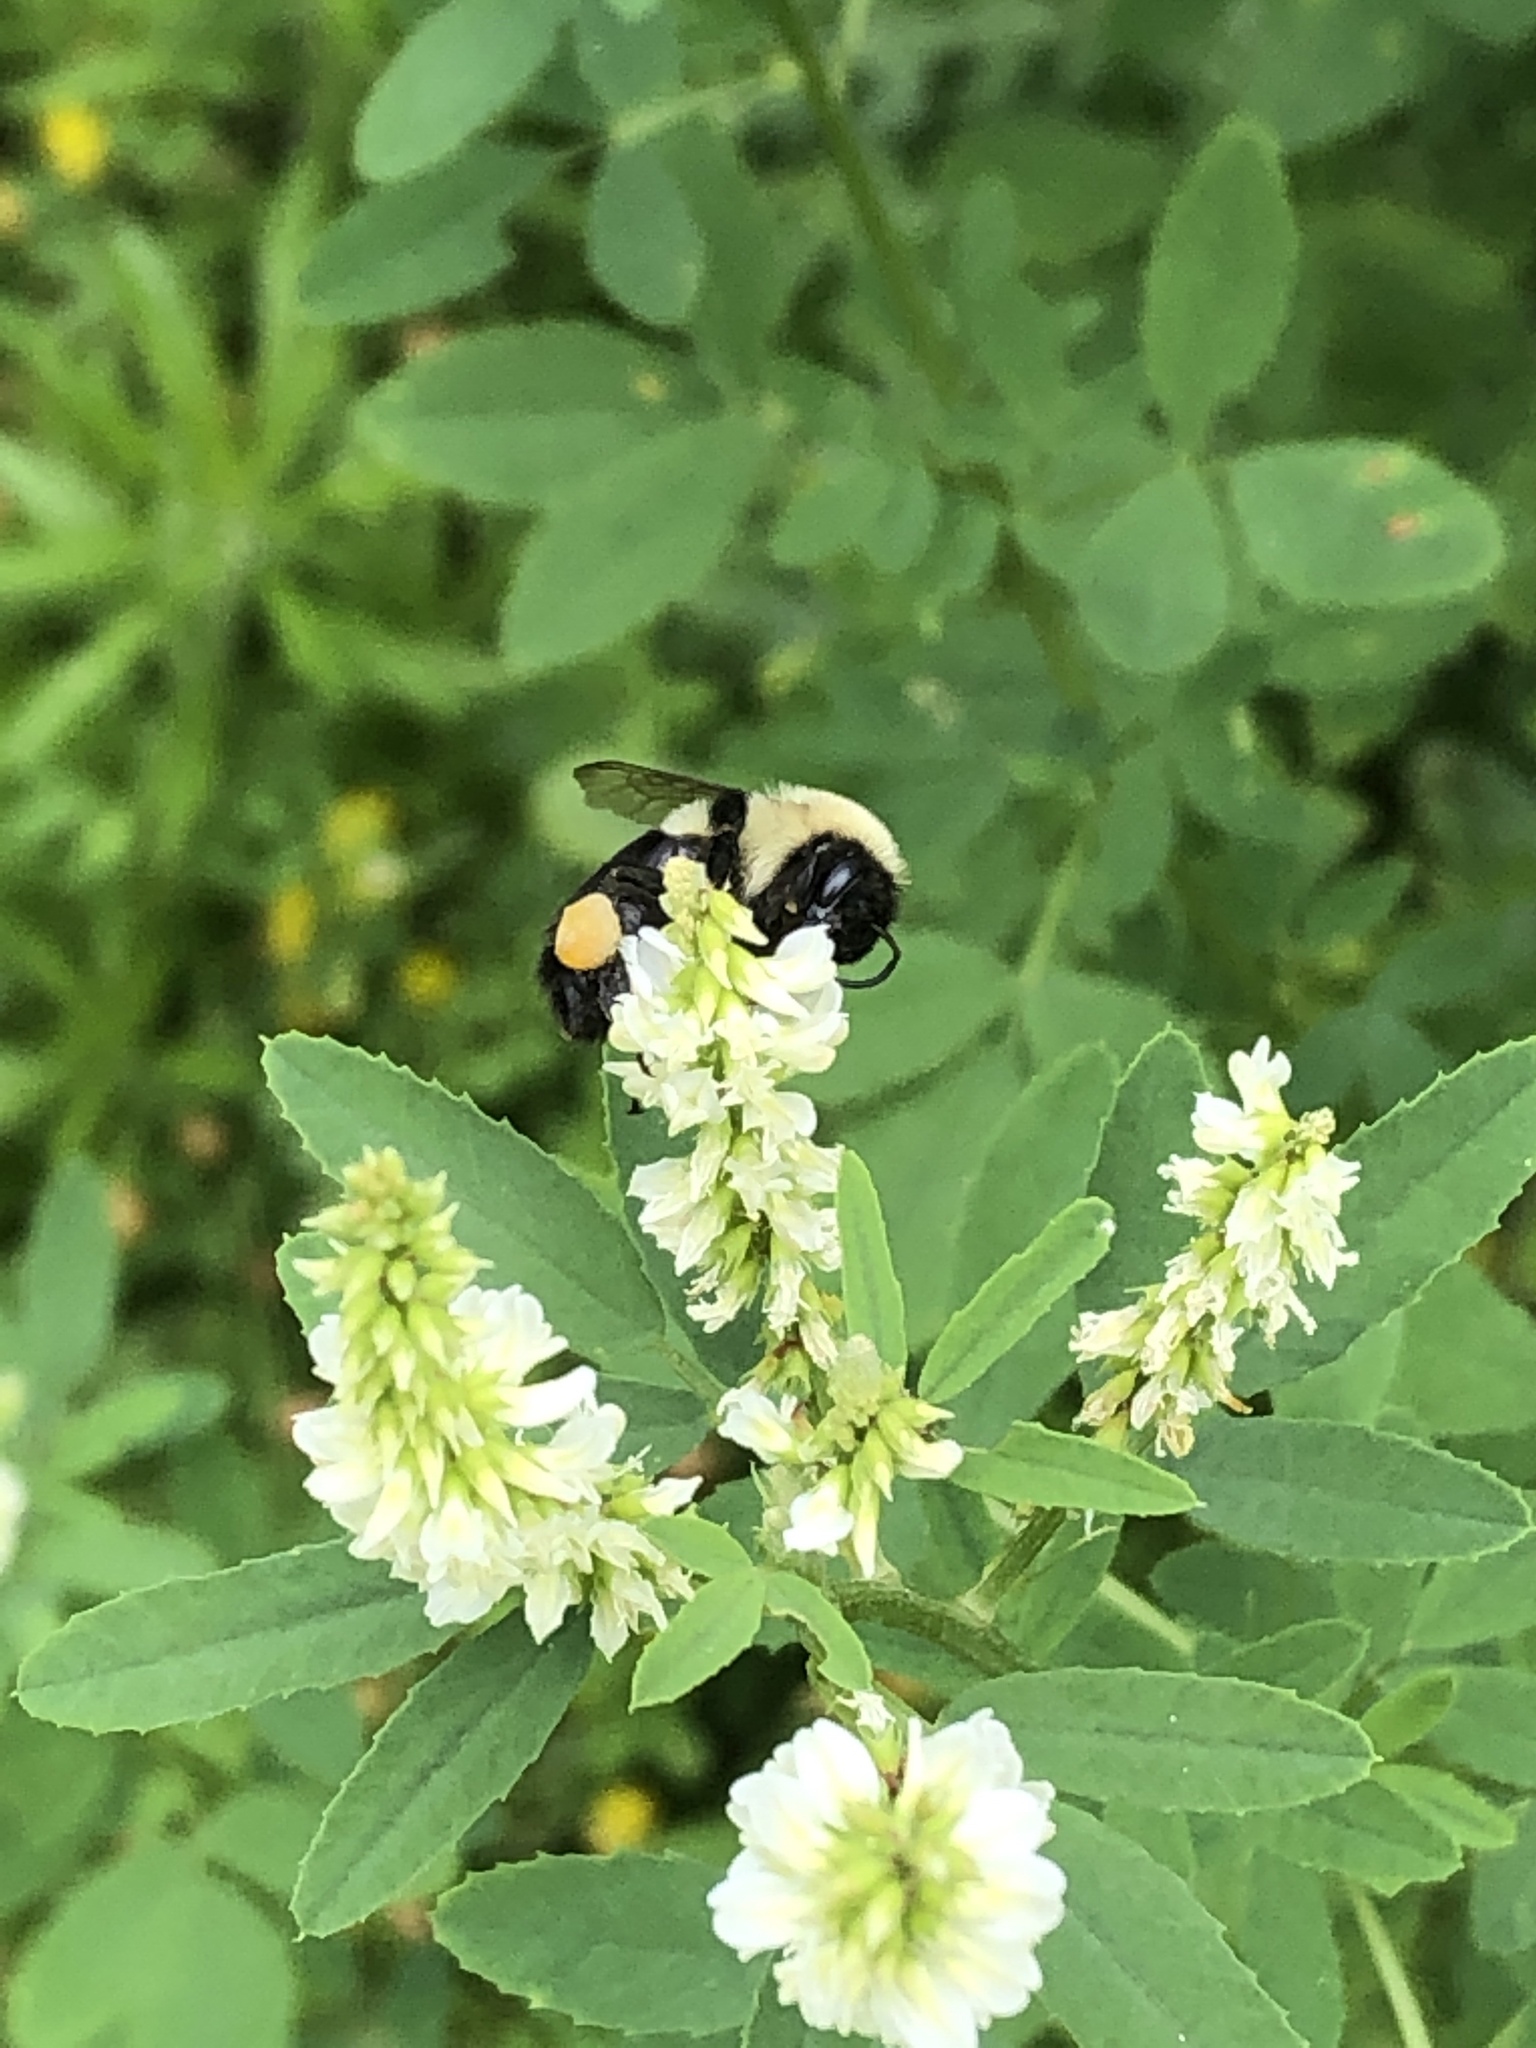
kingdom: Animalia
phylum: Arthropoda
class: Insecta
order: Hymenoptera
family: Apidae
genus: Bombus
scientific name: Bombus impatiens
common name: Common eastern bumble bee
